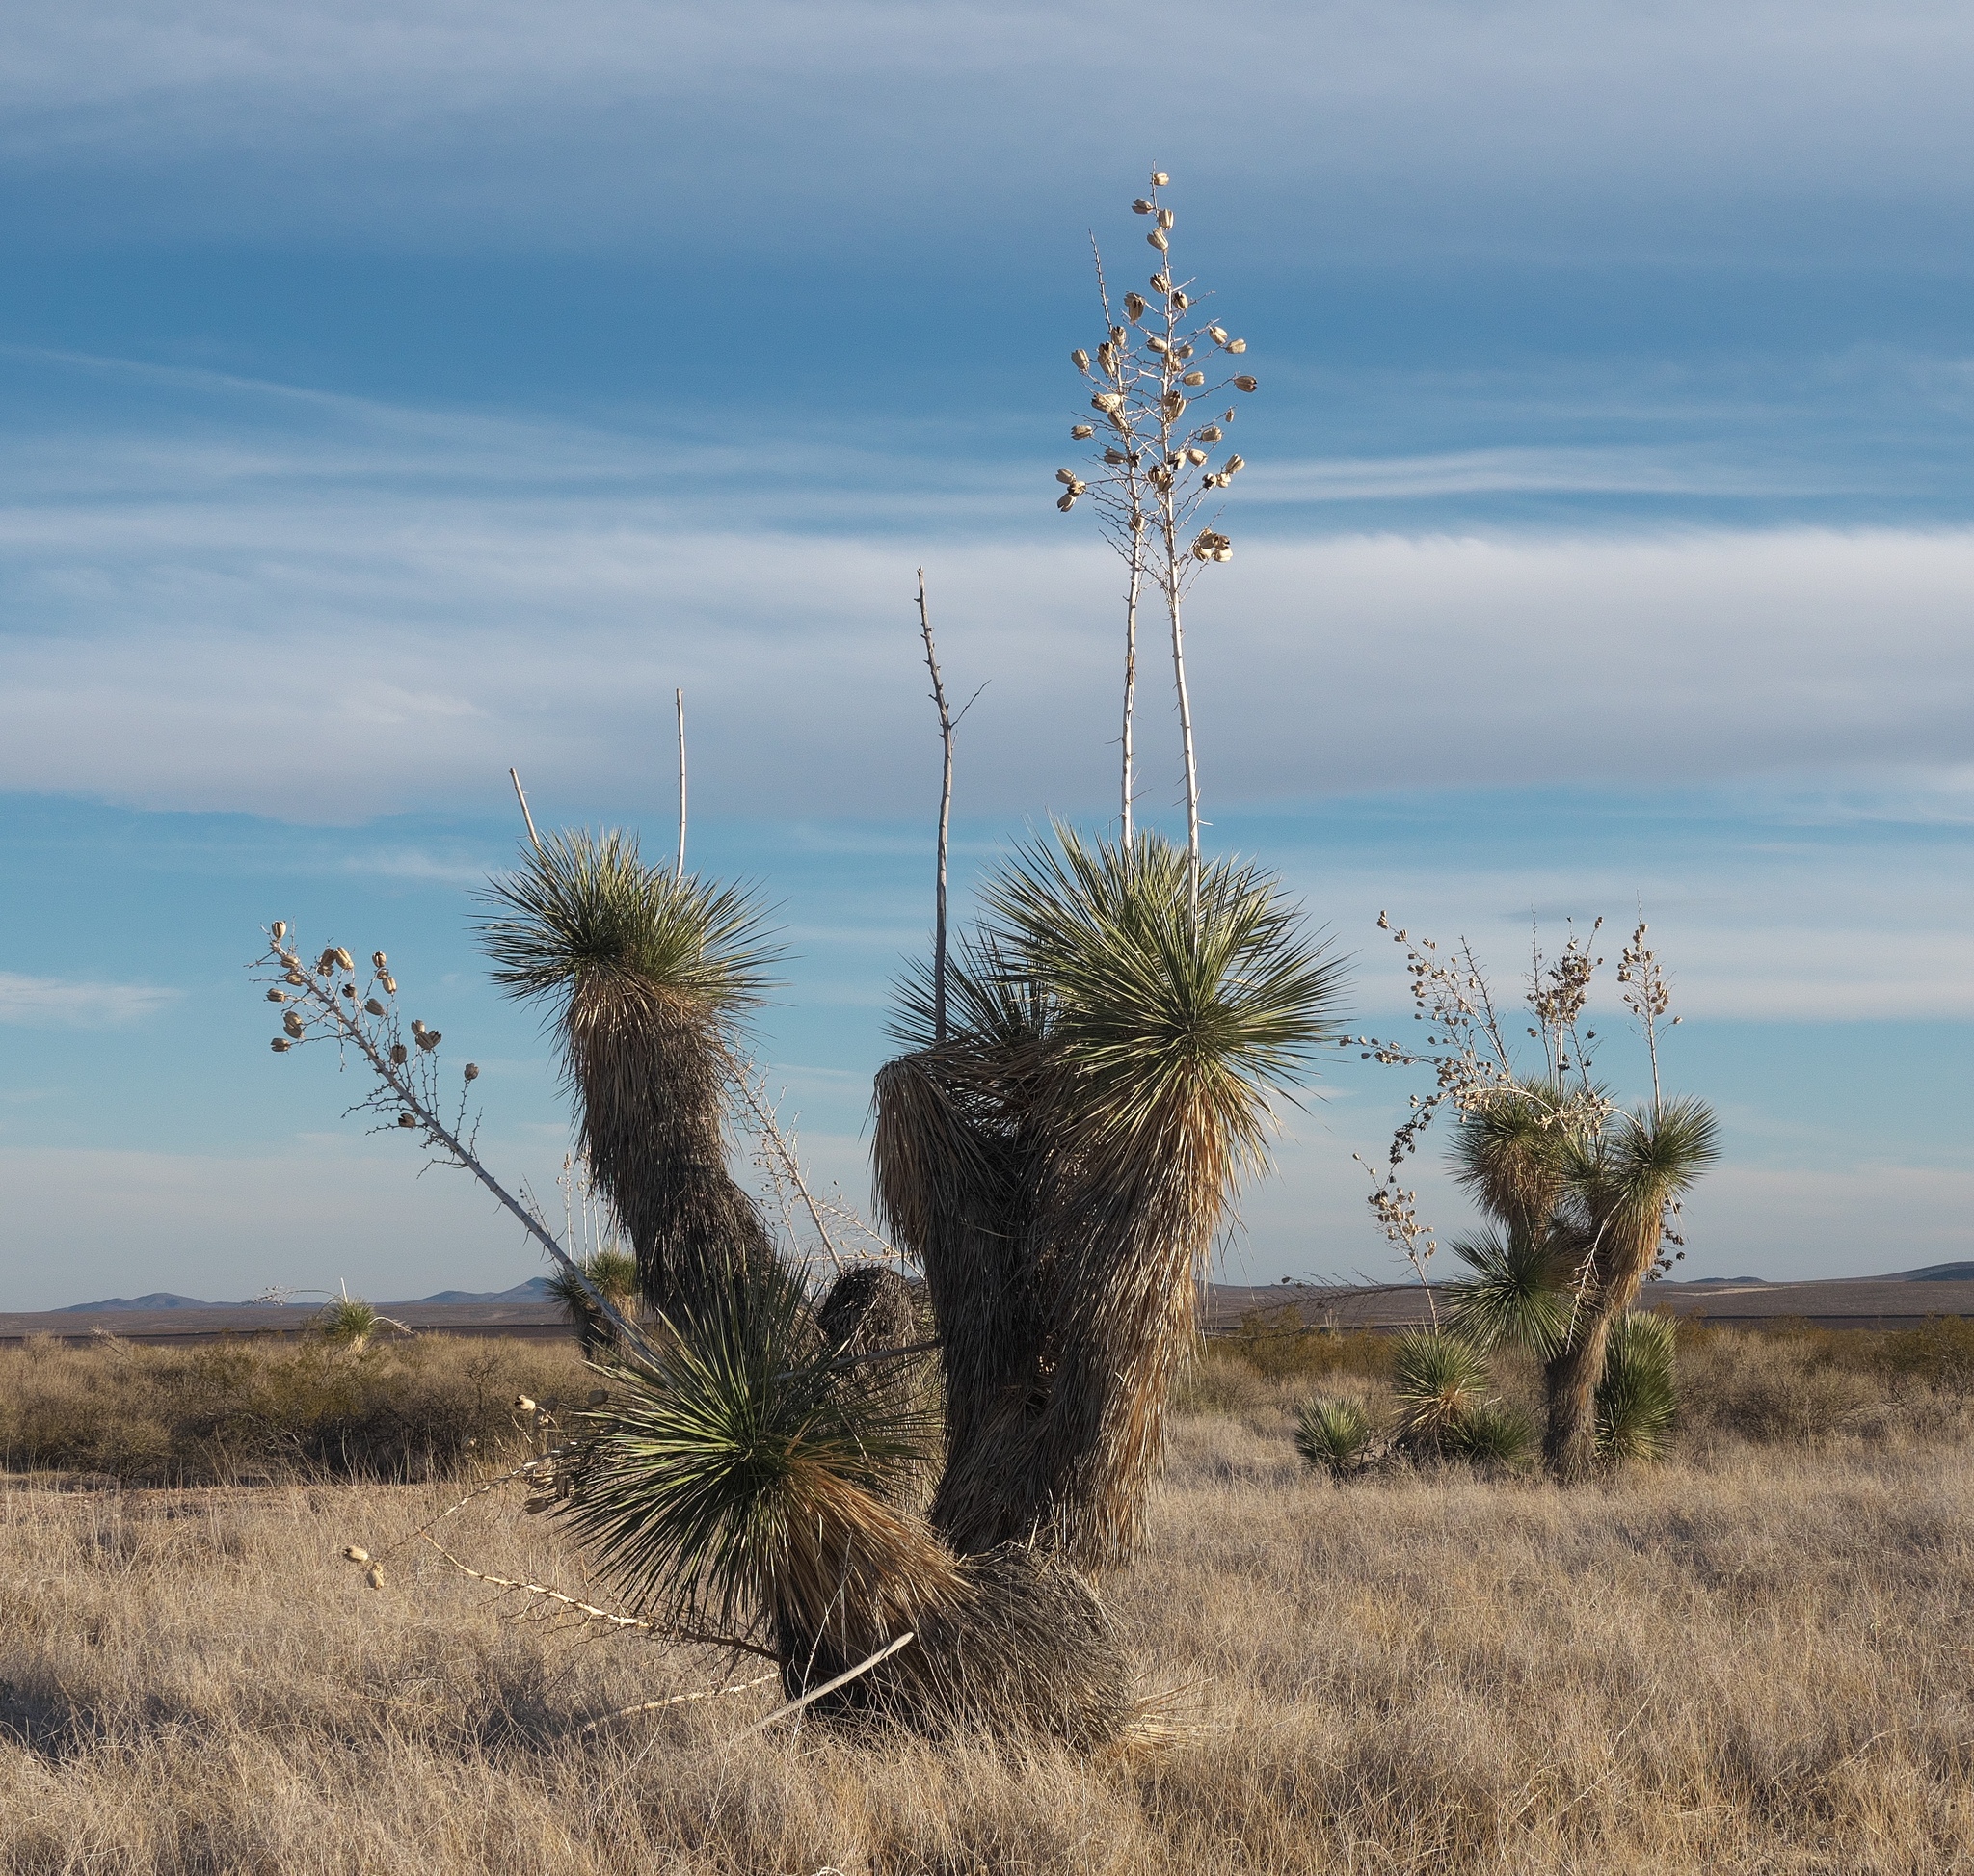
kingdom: Plantae
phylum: Tracheophyta
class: Liliopsida
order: Asparagales
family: Asparagaceae
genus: Yucca
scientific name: Yucca elata
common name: Palmella
